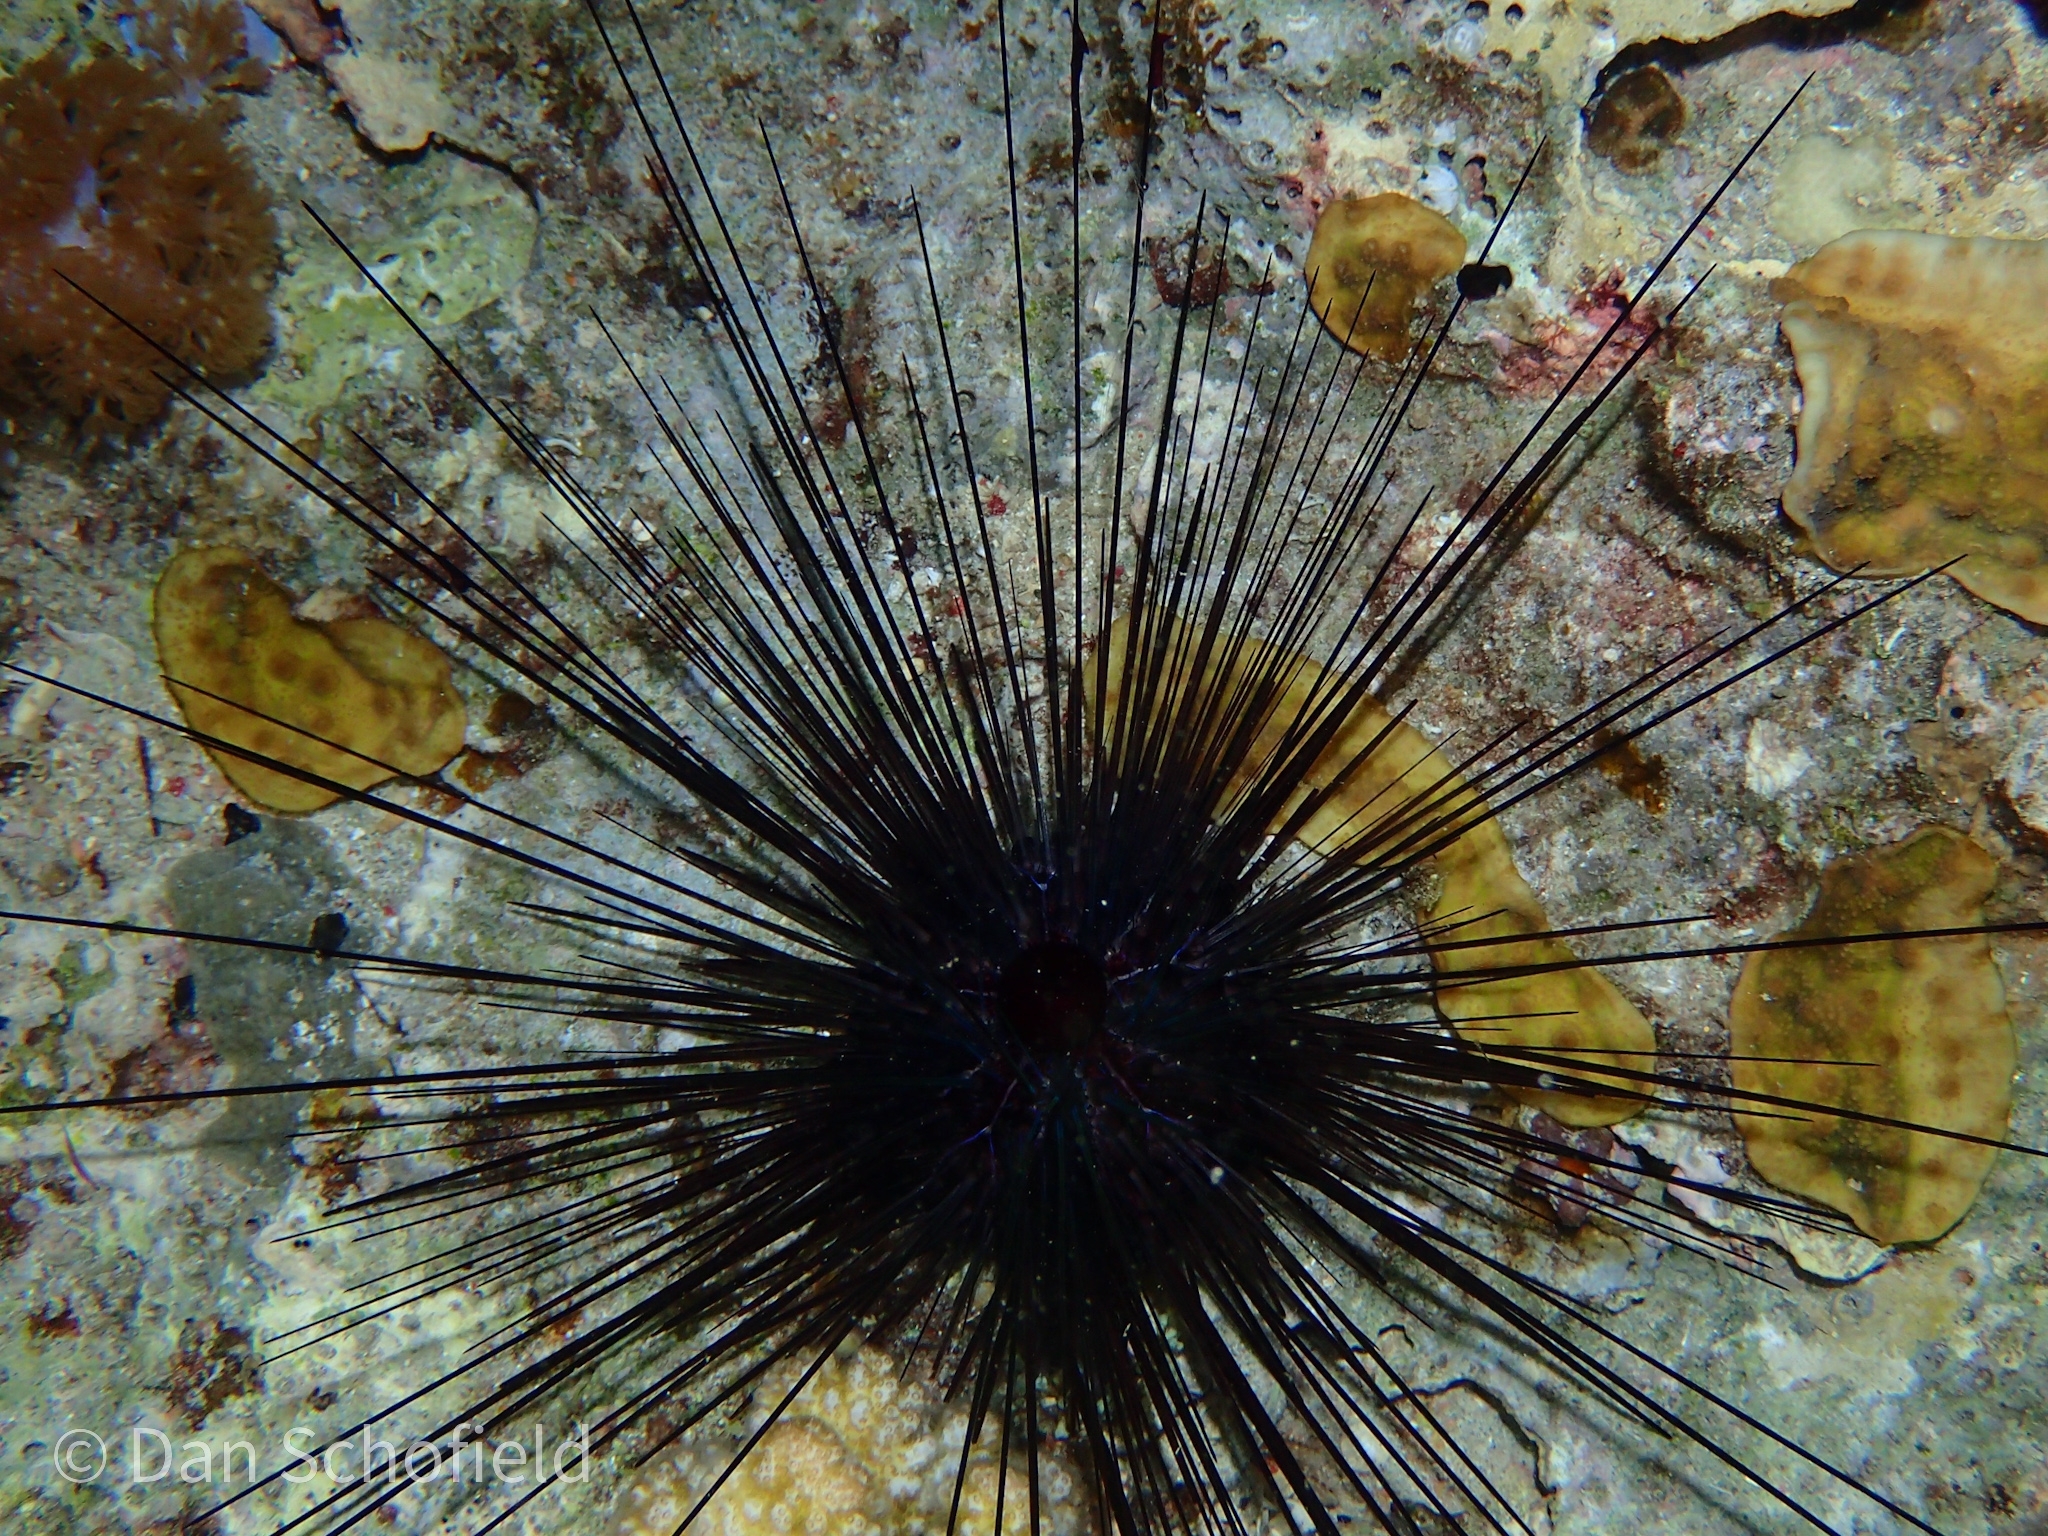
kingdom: Animalia
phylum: Echinodermata
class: Echinoidea
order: Diadematoida
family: Diadematidae
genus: Diadema
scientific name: Diadema savignyi
